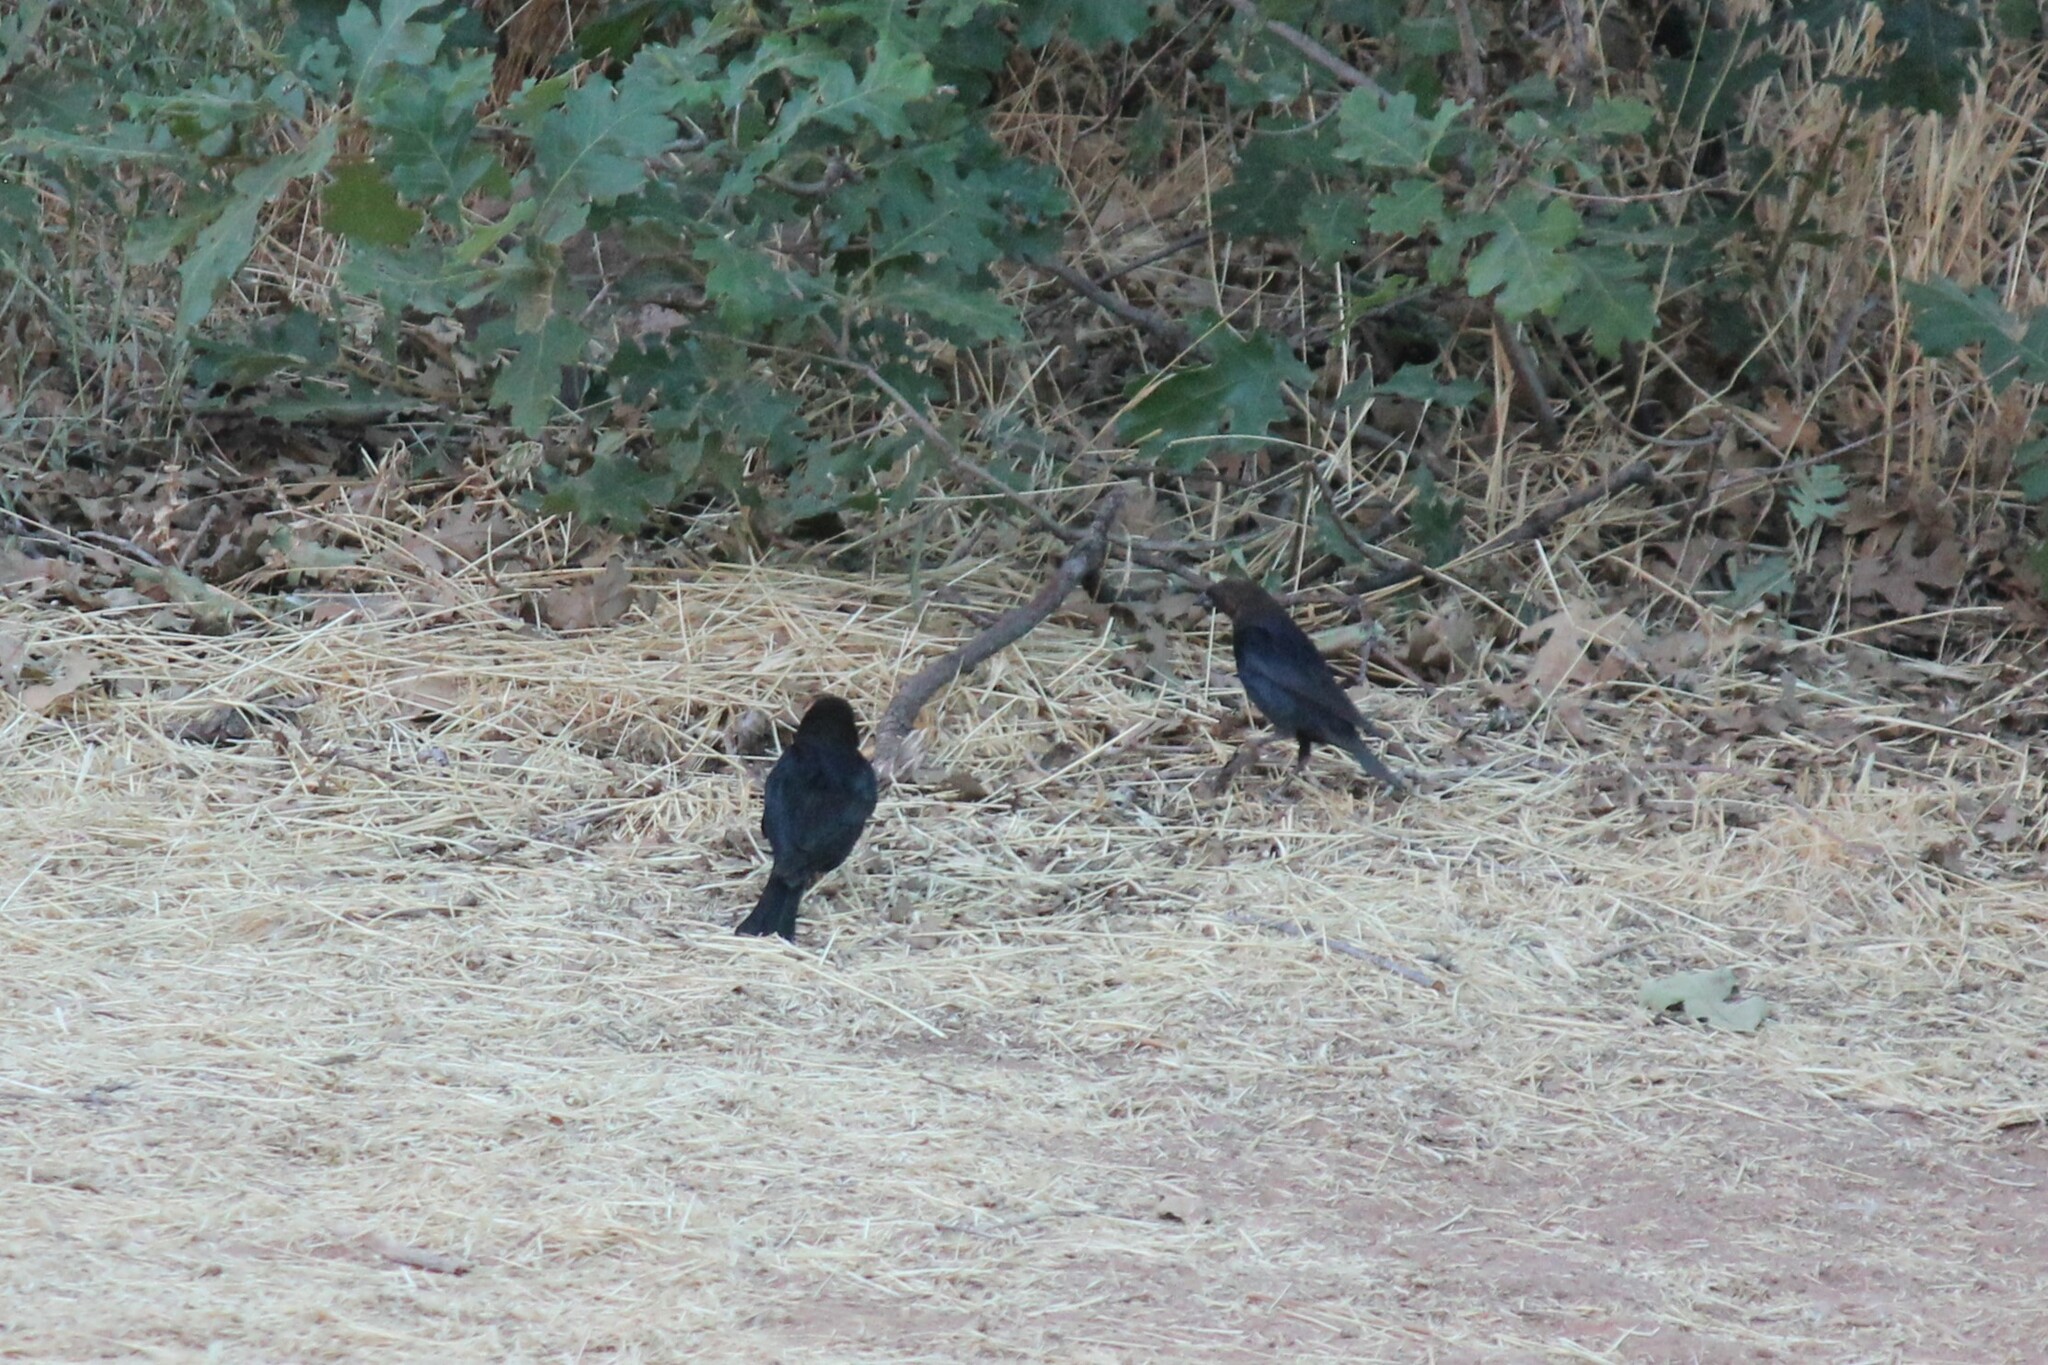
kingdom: Animalia
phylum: Chordata
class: Aves
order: Passeriformes
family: Icteridae
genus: Molothrus
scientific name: Molothrus ater
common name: Brown-headed cowbird
